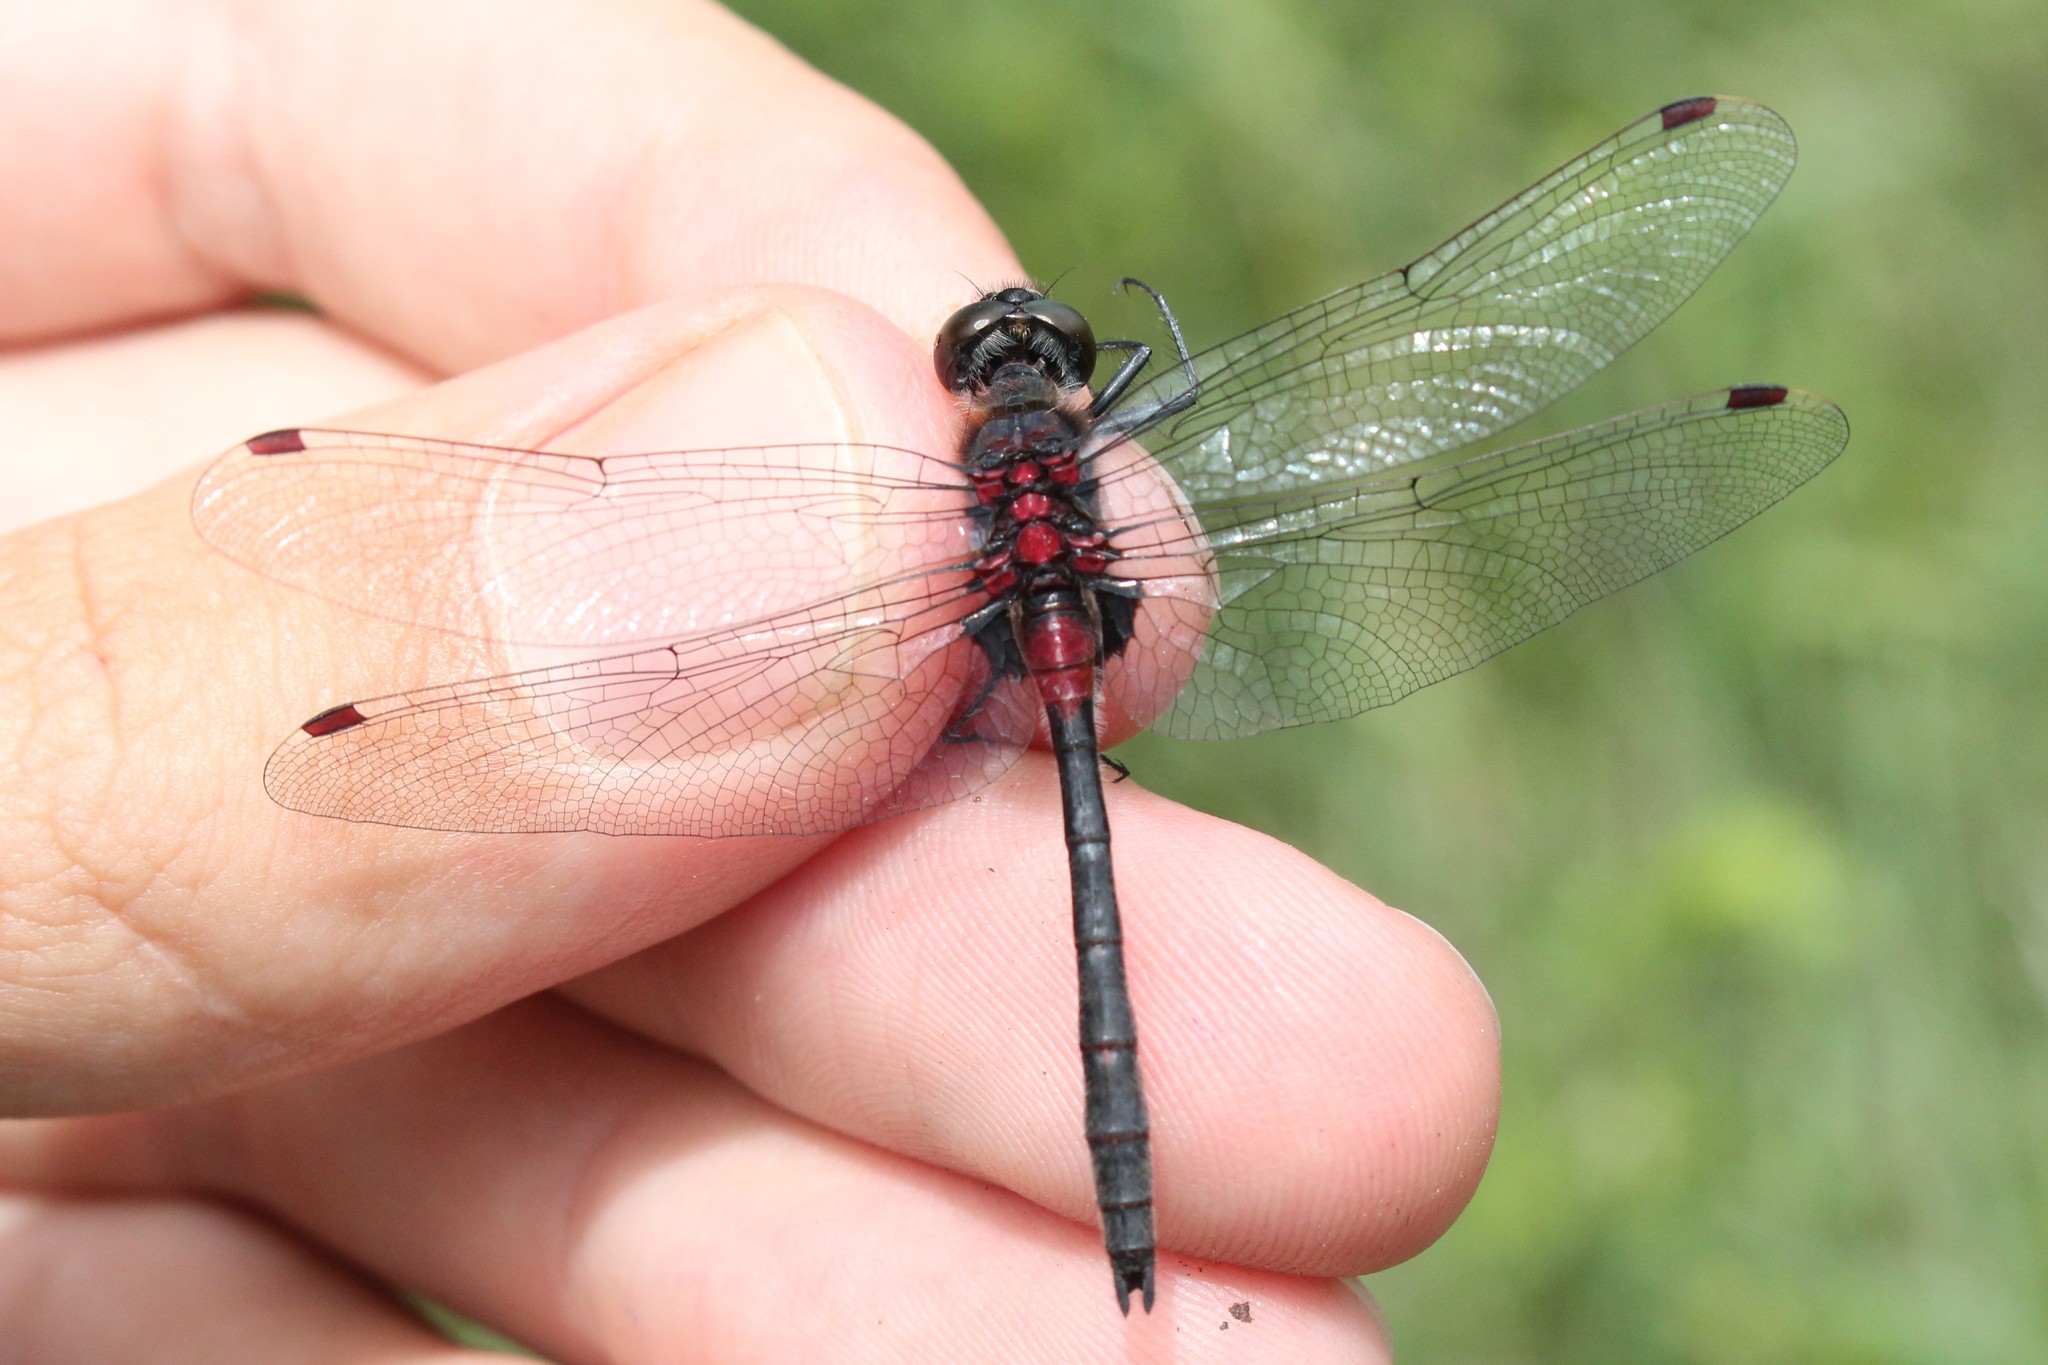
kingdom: Animalia
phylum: Arthropoda
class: Insecta
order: Odonata
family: Libellulidae
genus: Leucorrhinia
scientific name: Leucorrhinia glacialis
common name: Crimson-ringed whiteface
